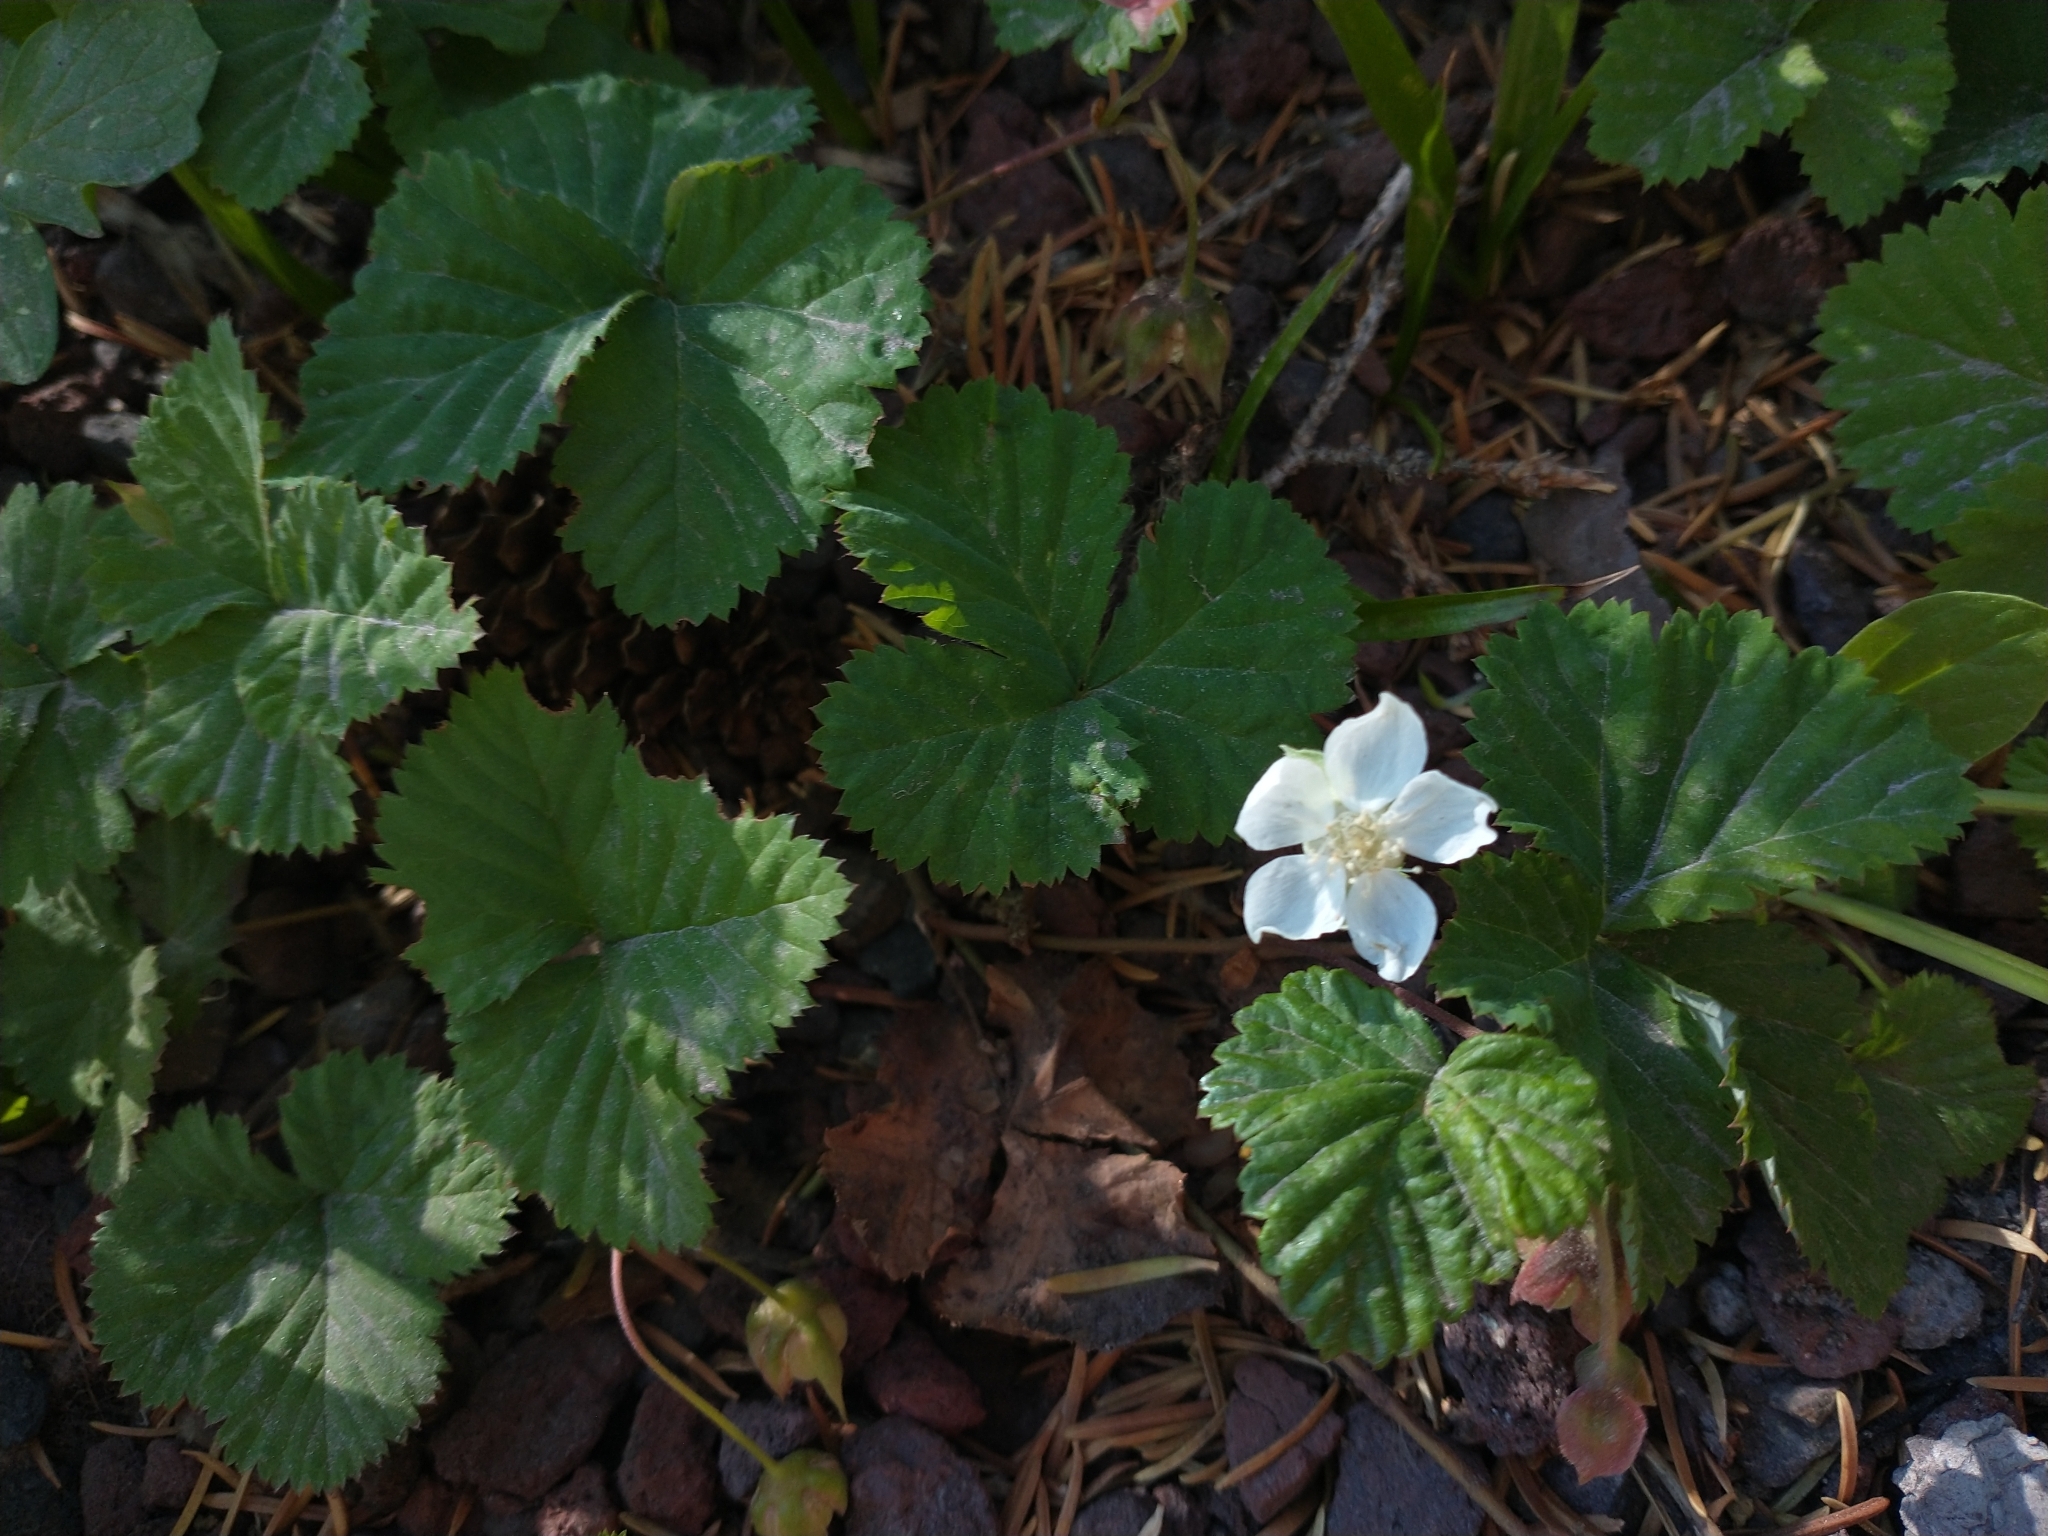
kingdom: Plantae
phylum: Tracheophyta
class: Magnoliopsida
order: Rosales
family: Rosaceae
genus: Rubus
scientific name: Rubus lasiococcus
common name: Dwarf bramble
